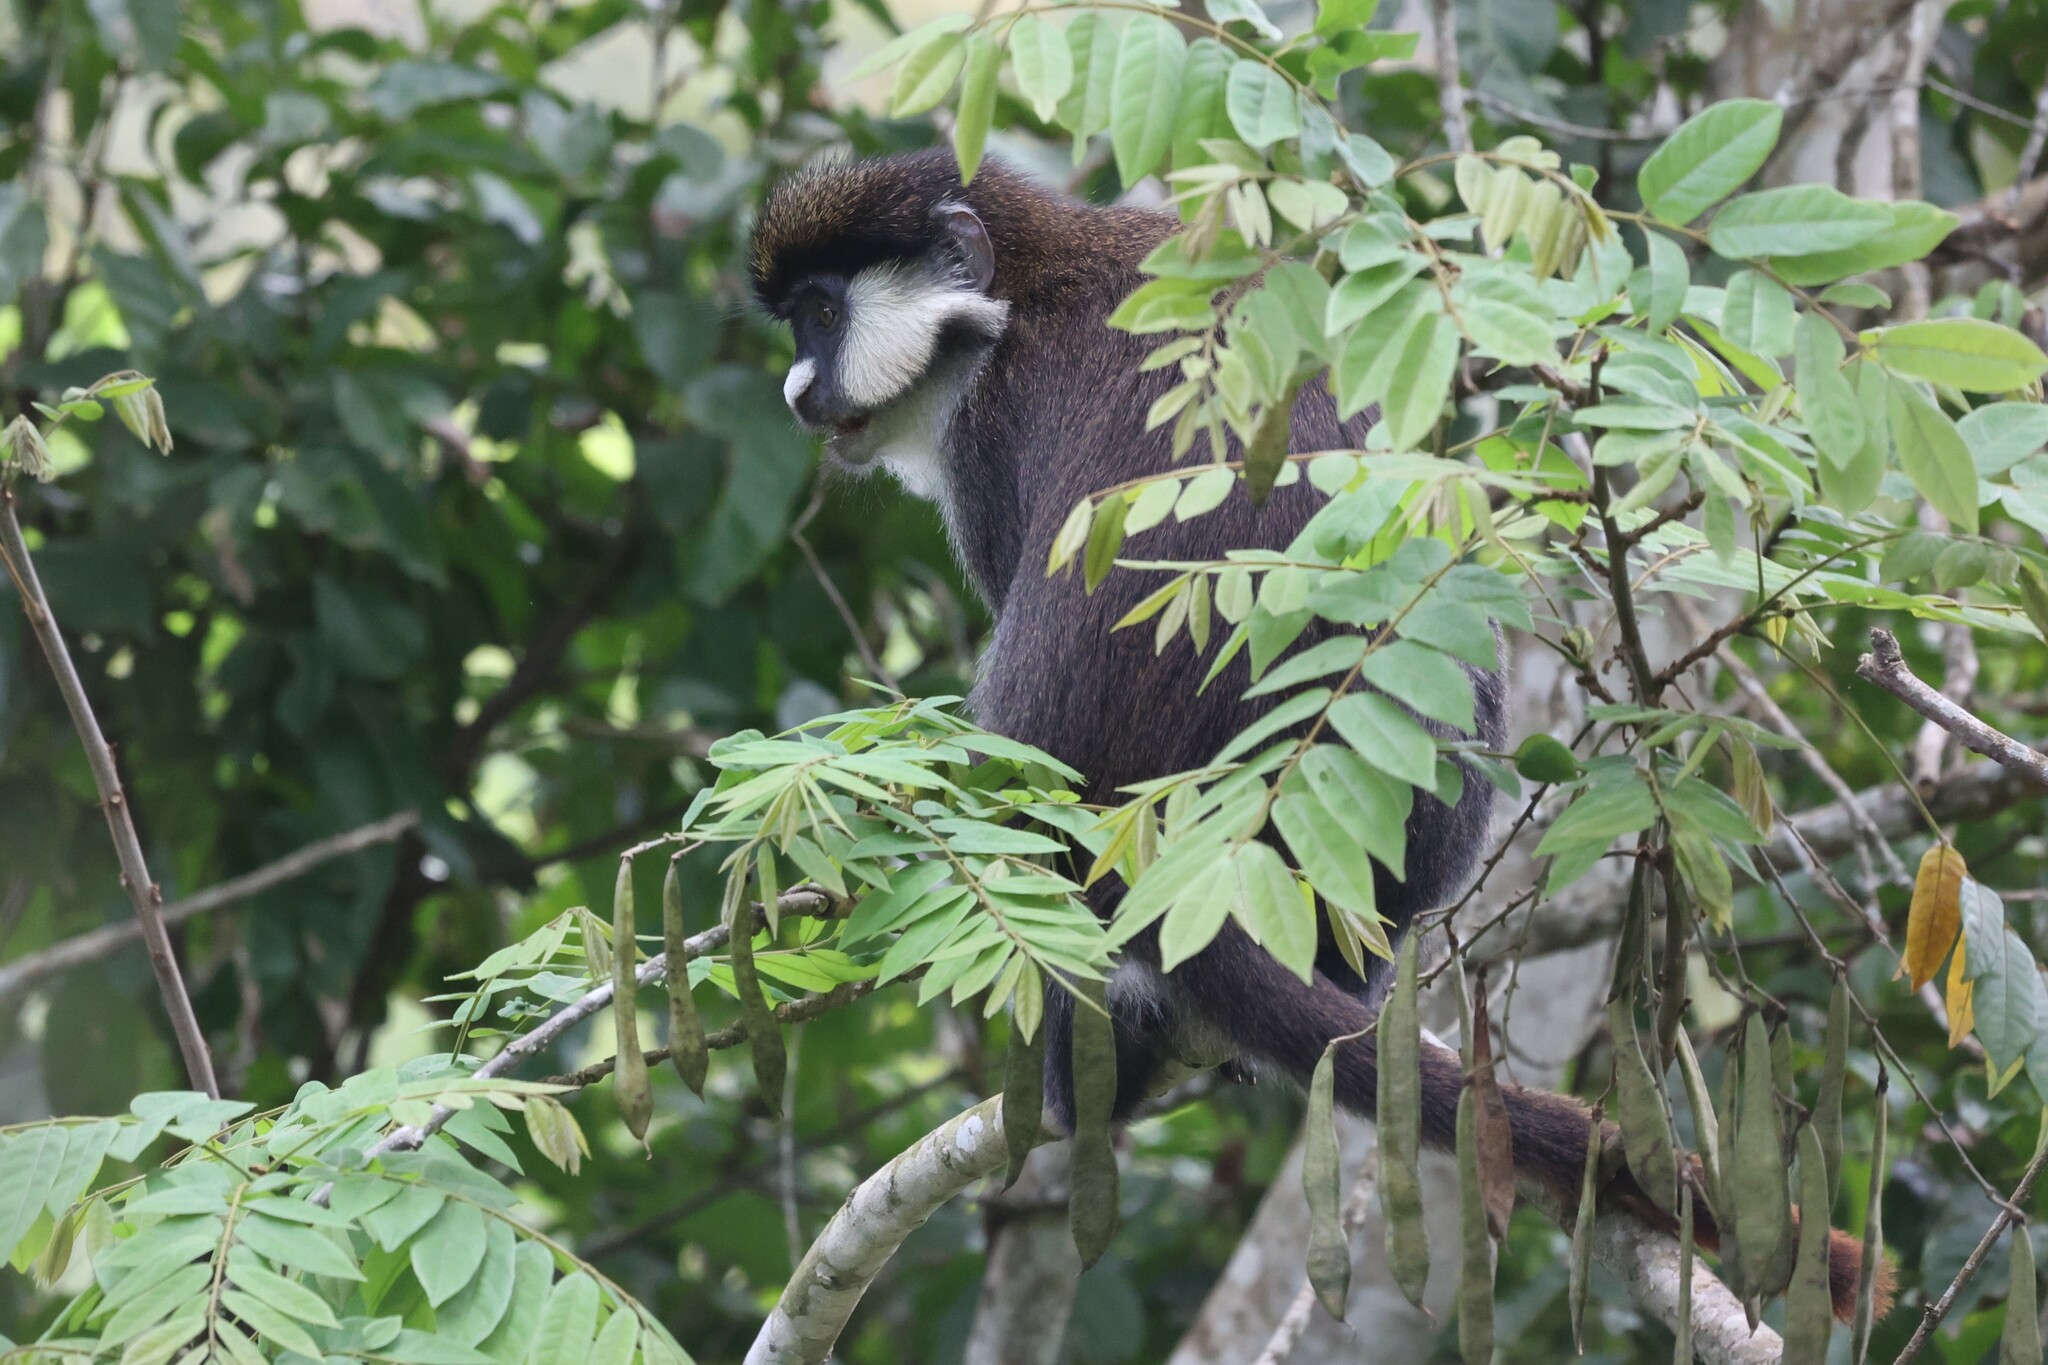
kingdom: Animalia
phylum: Chordata
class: Mammalia
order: Primates
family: Cercopithecidae
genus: Cercopithecus
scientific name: Cercopithecus ascanius
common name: Red-tailed monkey
